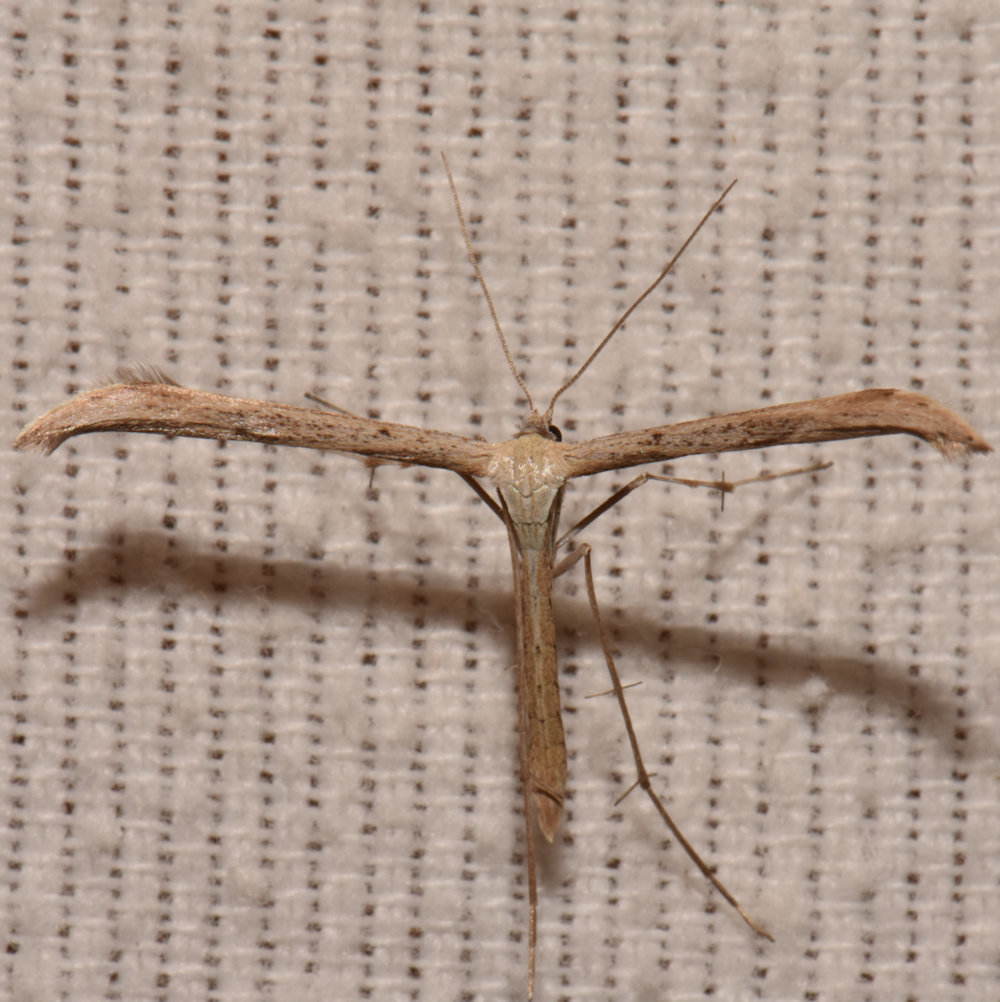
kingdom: Animalia
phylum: Arthropoda
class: Insecta
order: Lepidoptera
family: Pterophoridae
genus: Emmelina
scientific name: Emmelina monodactyla
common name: Common plume
